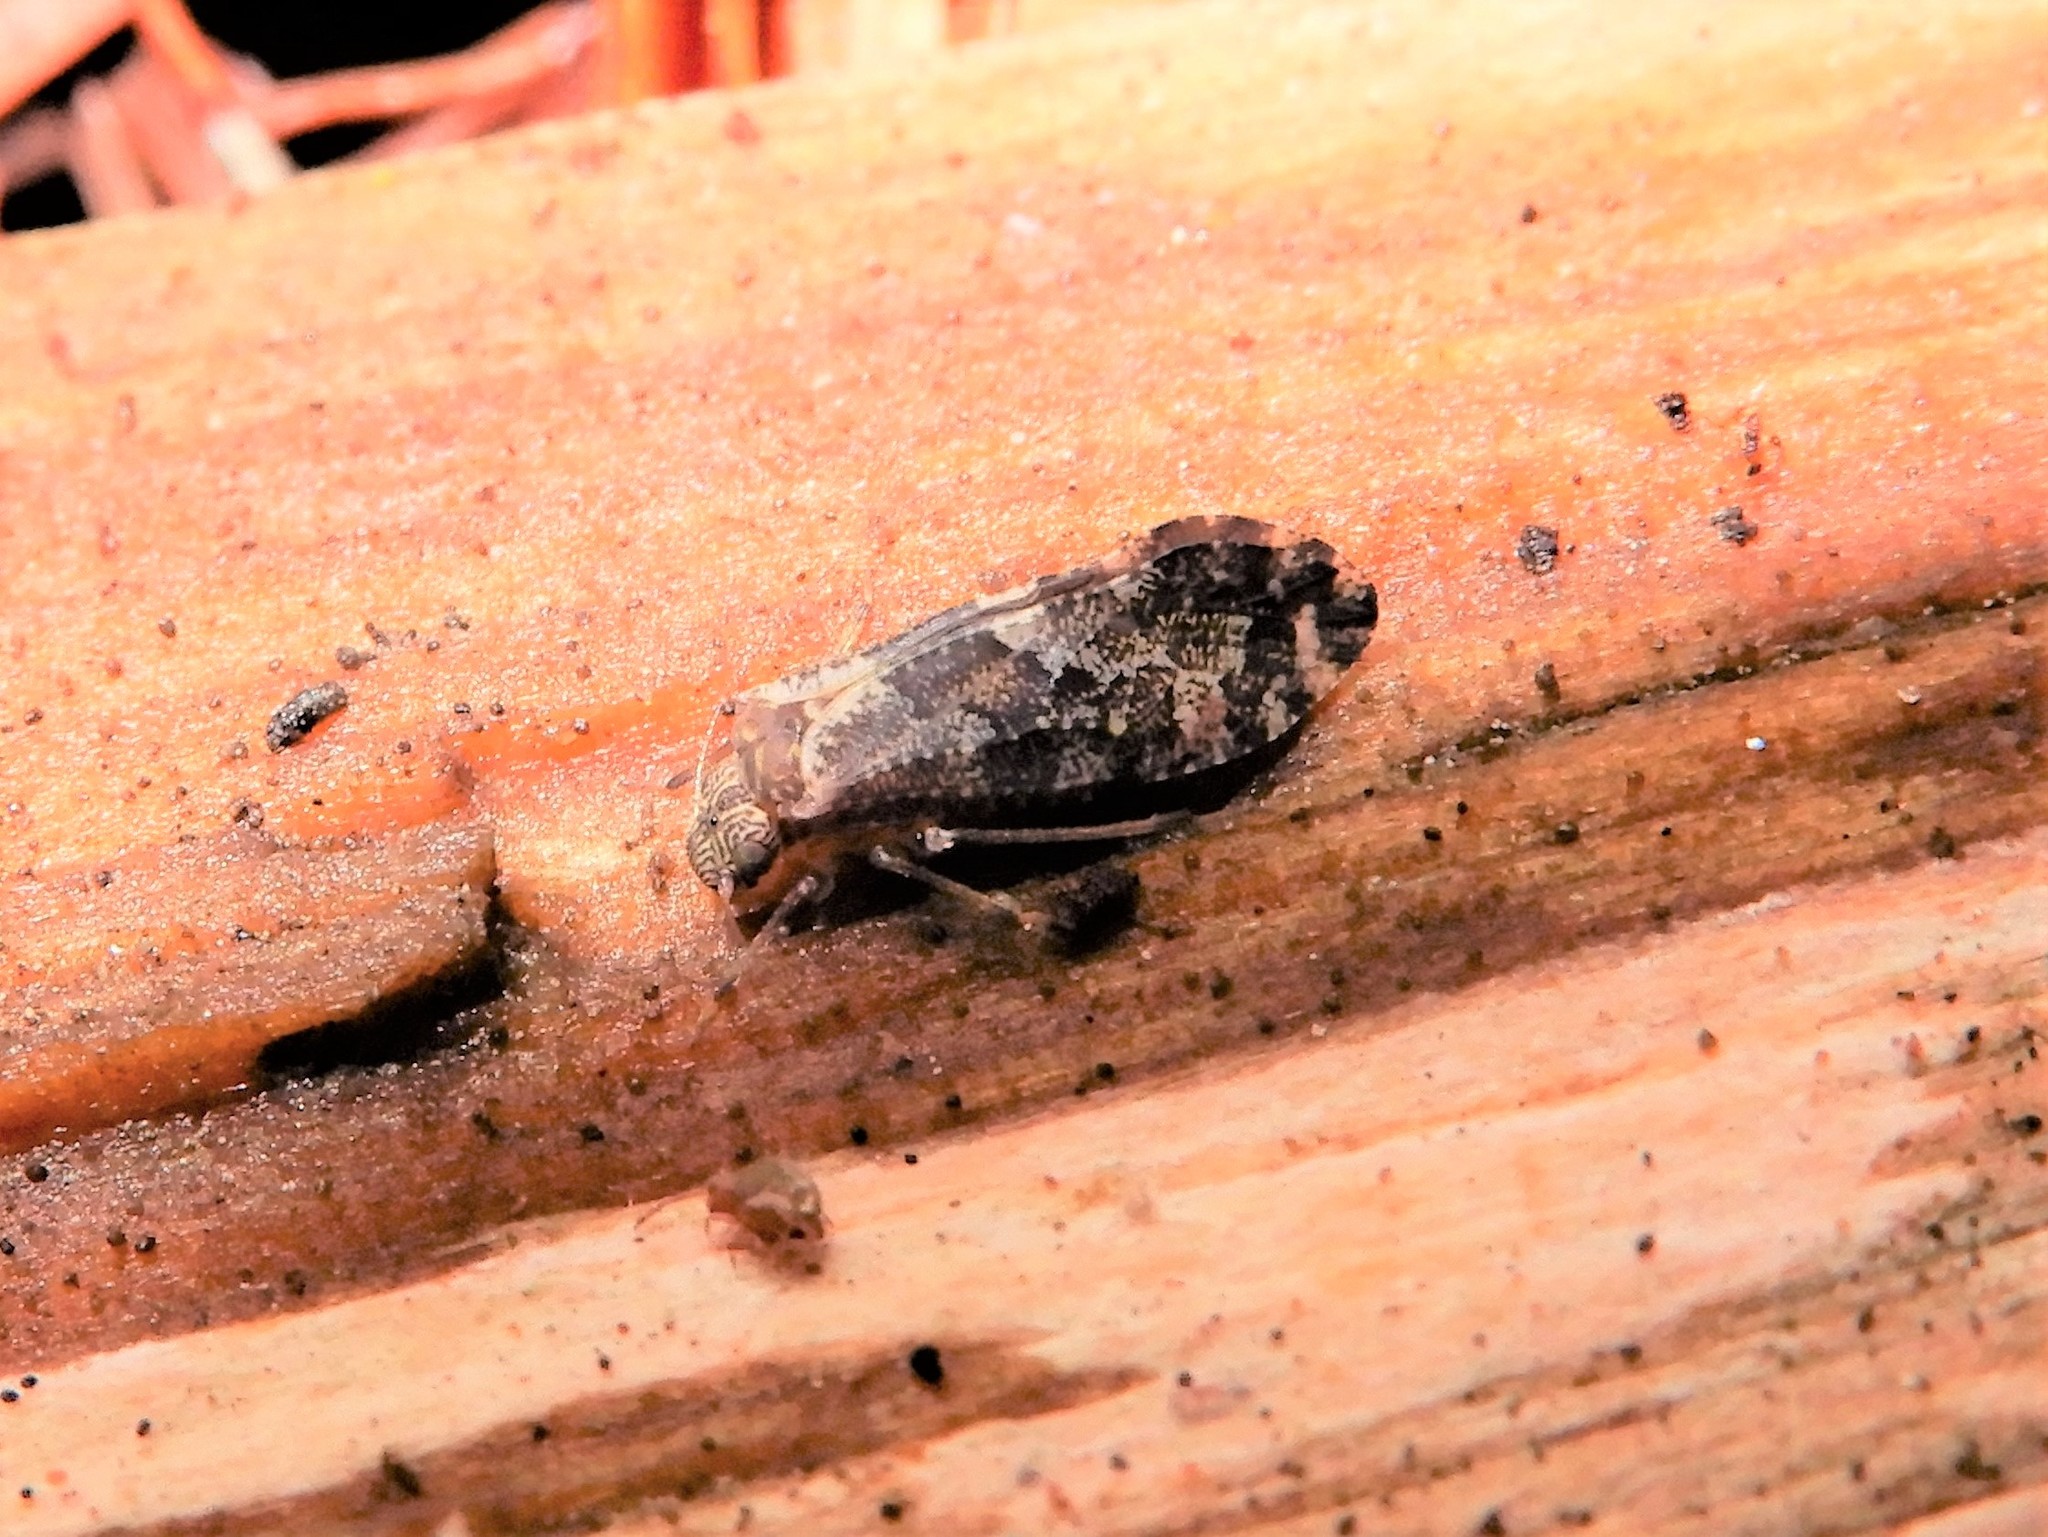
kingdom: Animalia
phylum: Arthropoda
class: Insecta
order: Psocodea
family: Myopsocidae
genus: Nimbopsocus
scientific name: Nimbopsocus australis
